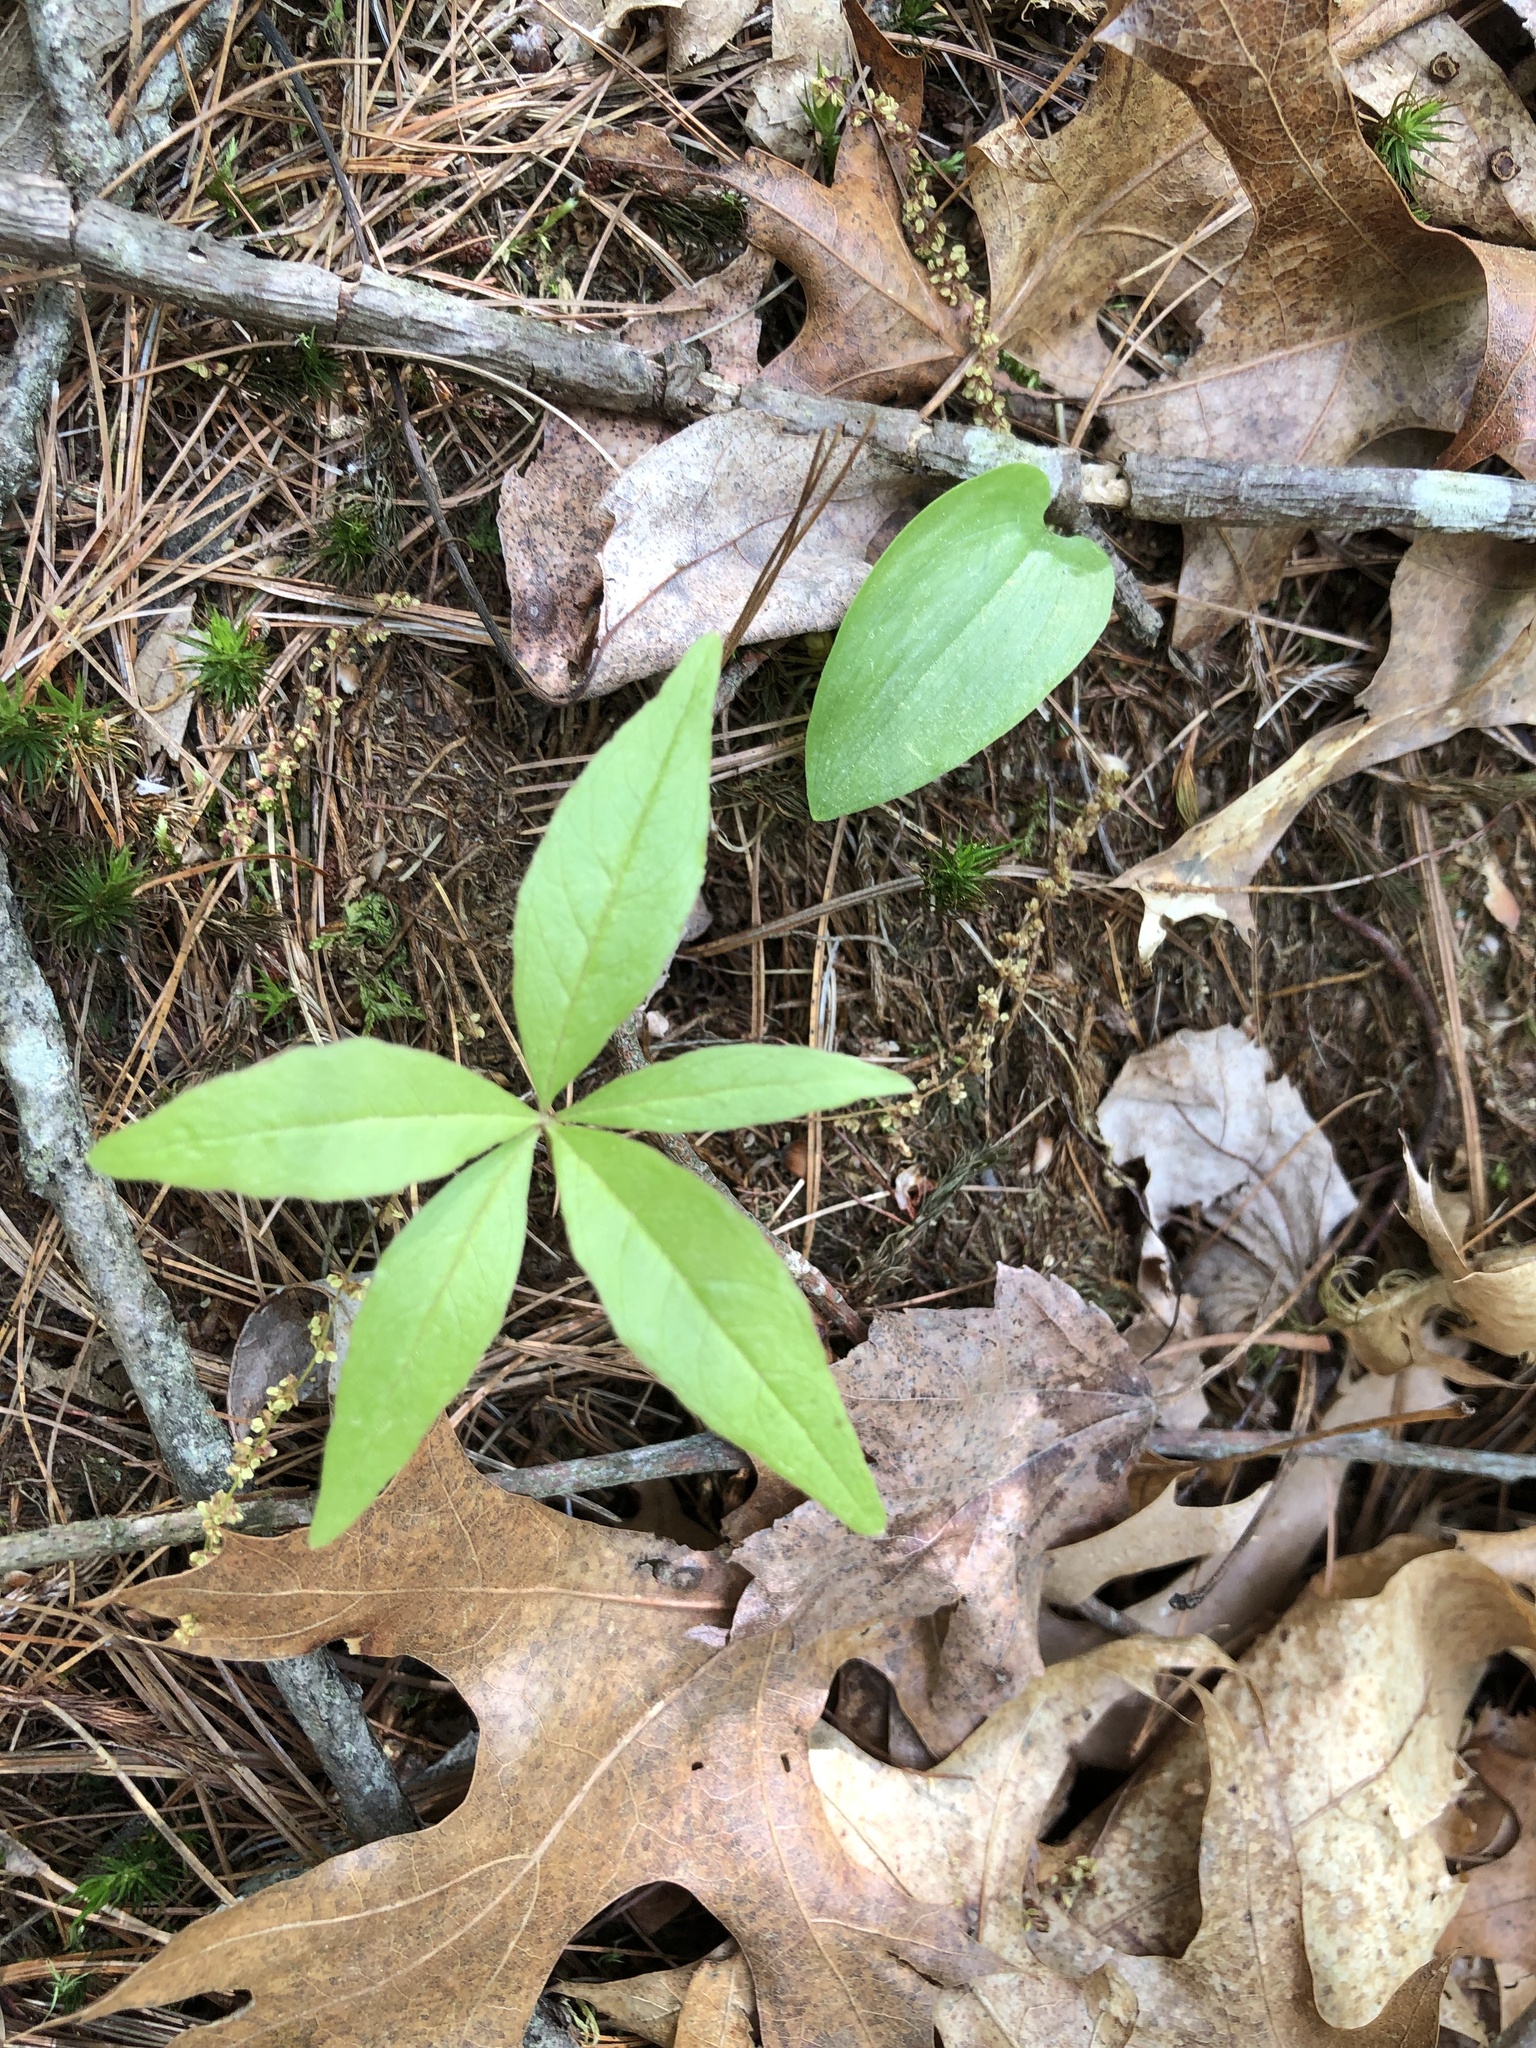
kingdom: Plantae
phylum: Tracheophyta
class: Magnoliopsida
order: Ericales
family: Primulaceae
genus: Lysimachia
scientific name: Lysimachia borealis
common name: American starflower
